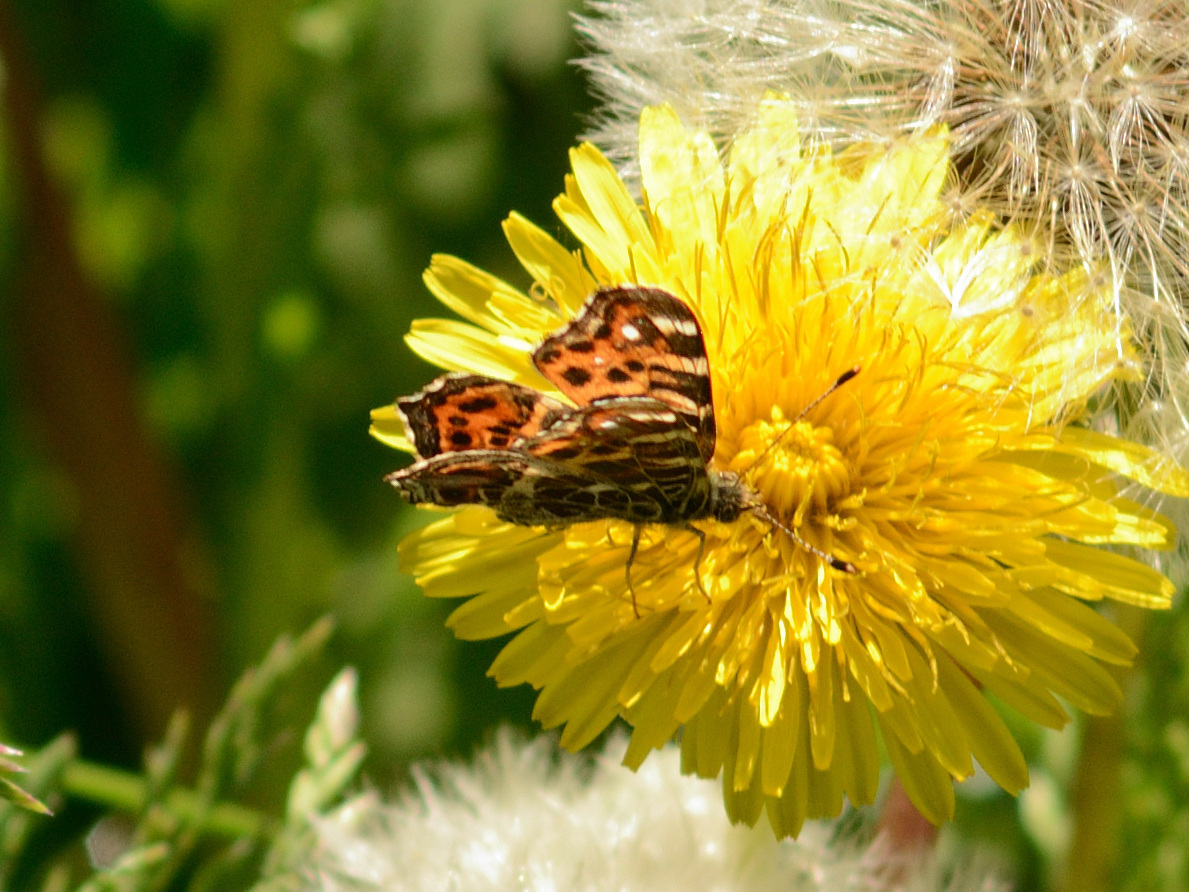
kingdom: Animalia
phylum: Arthropoda
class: Insecta
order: Lepidoptera
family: Nymphalidae
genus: Araschnia
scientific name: Araschnia levana
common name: Map butterfly
